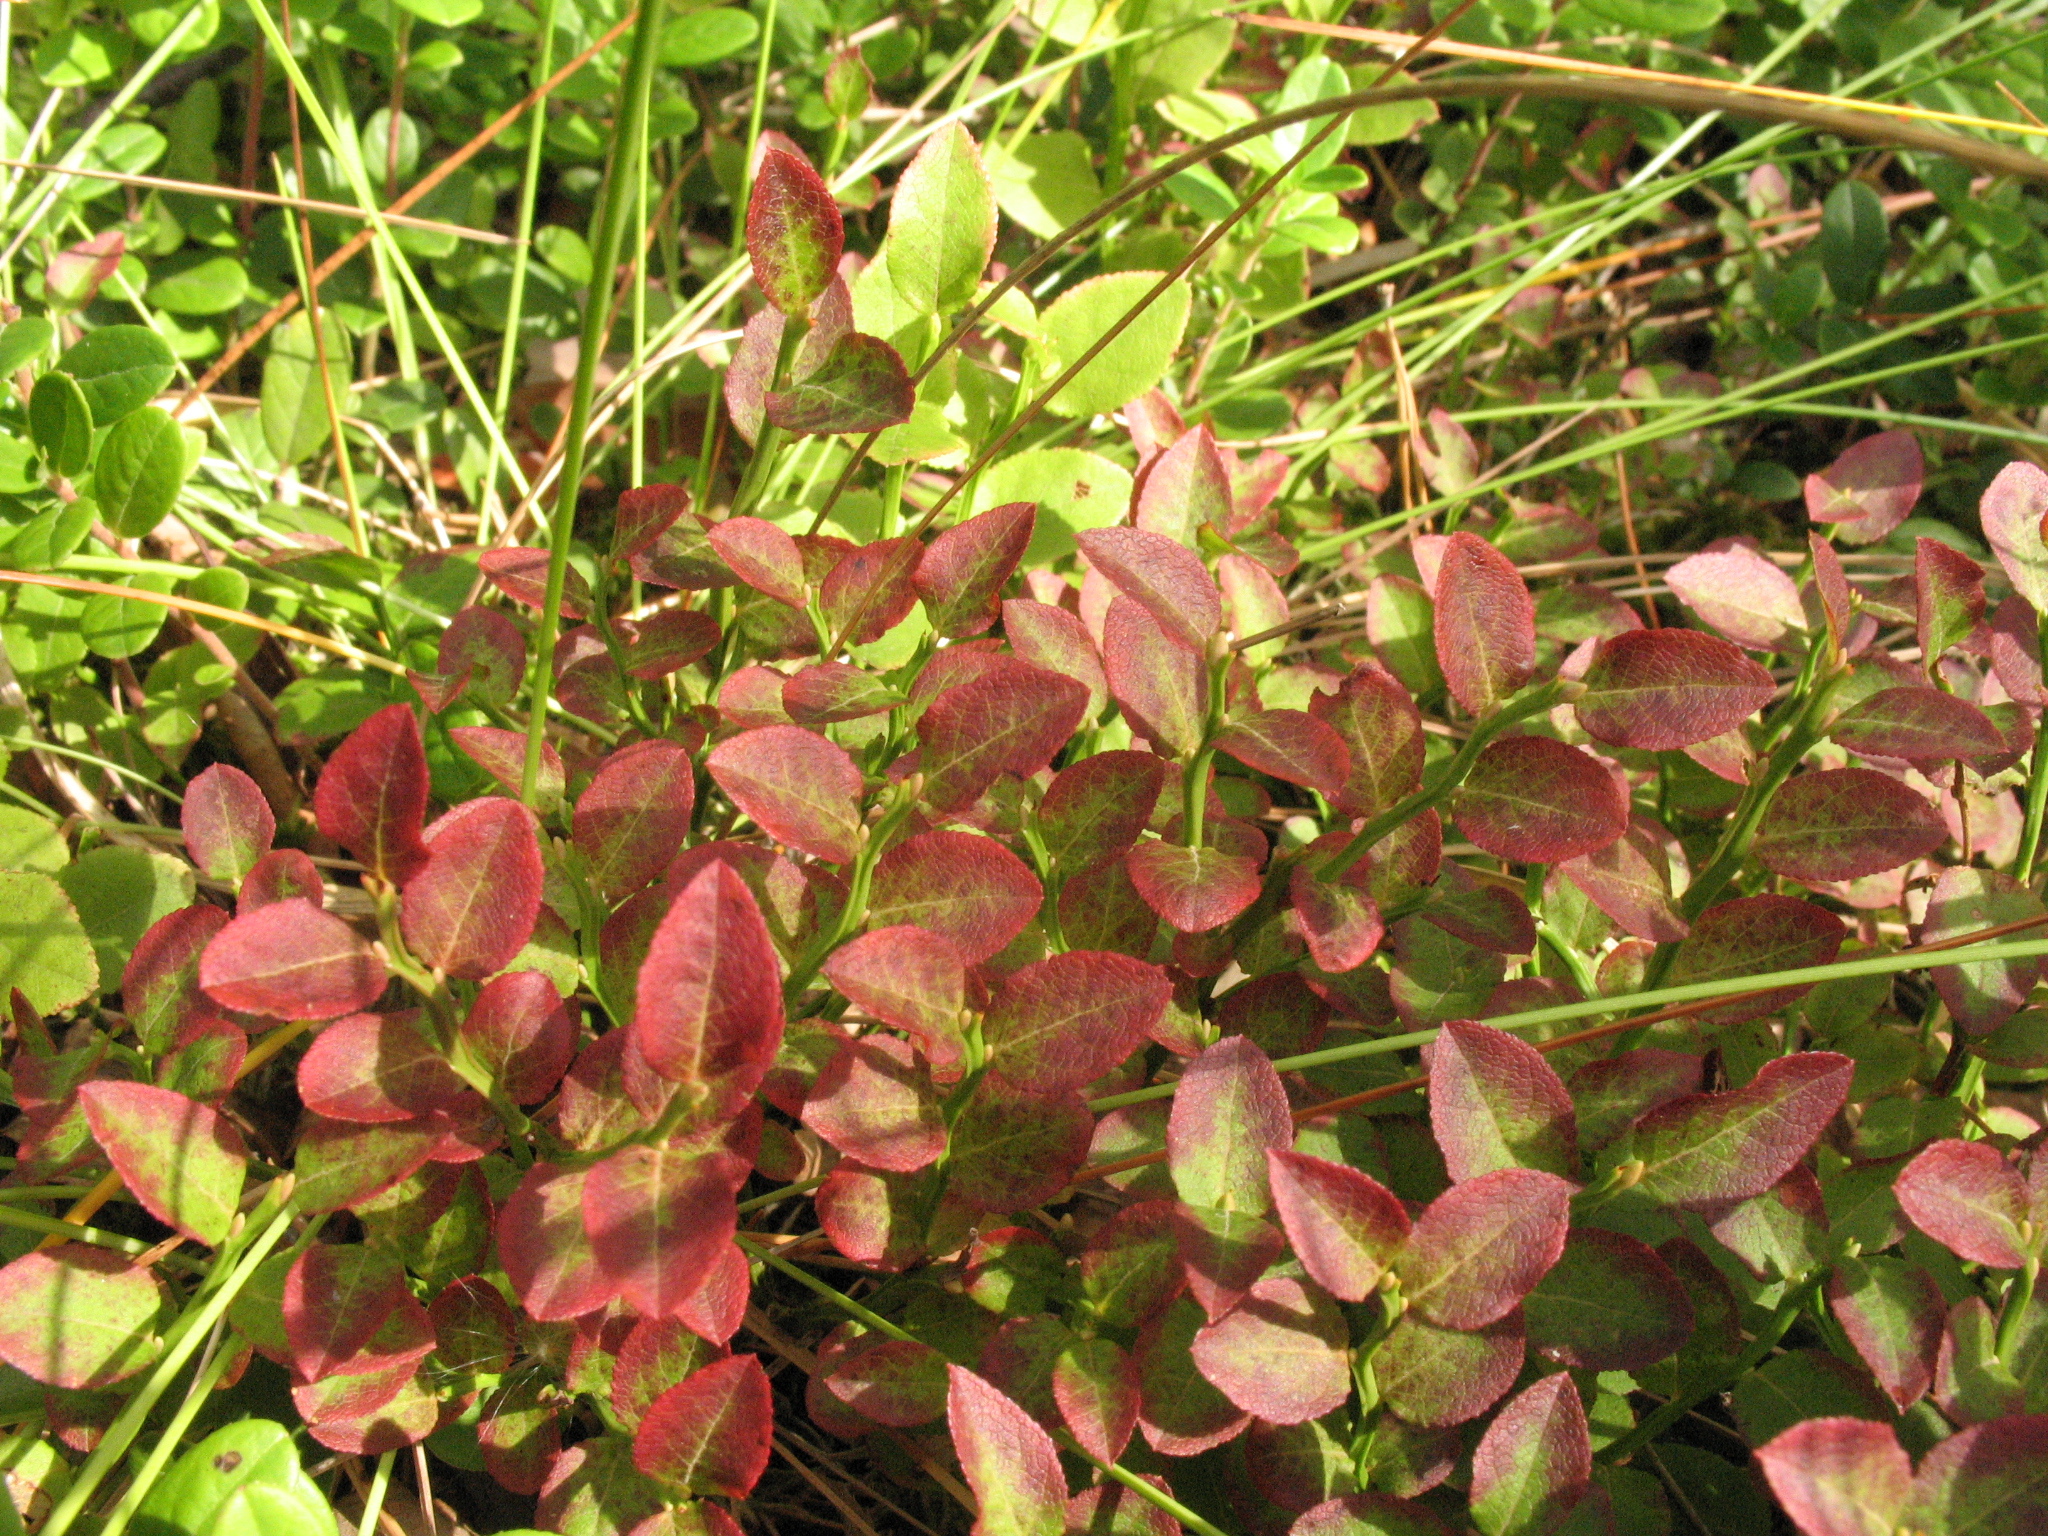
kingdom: Plantae
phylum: Tracheophyta
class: Magnoliopsida
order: Ericales
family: Ericaceae
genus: Vaccinium
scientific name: Vaccinium myrtillus
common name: Bilberry
